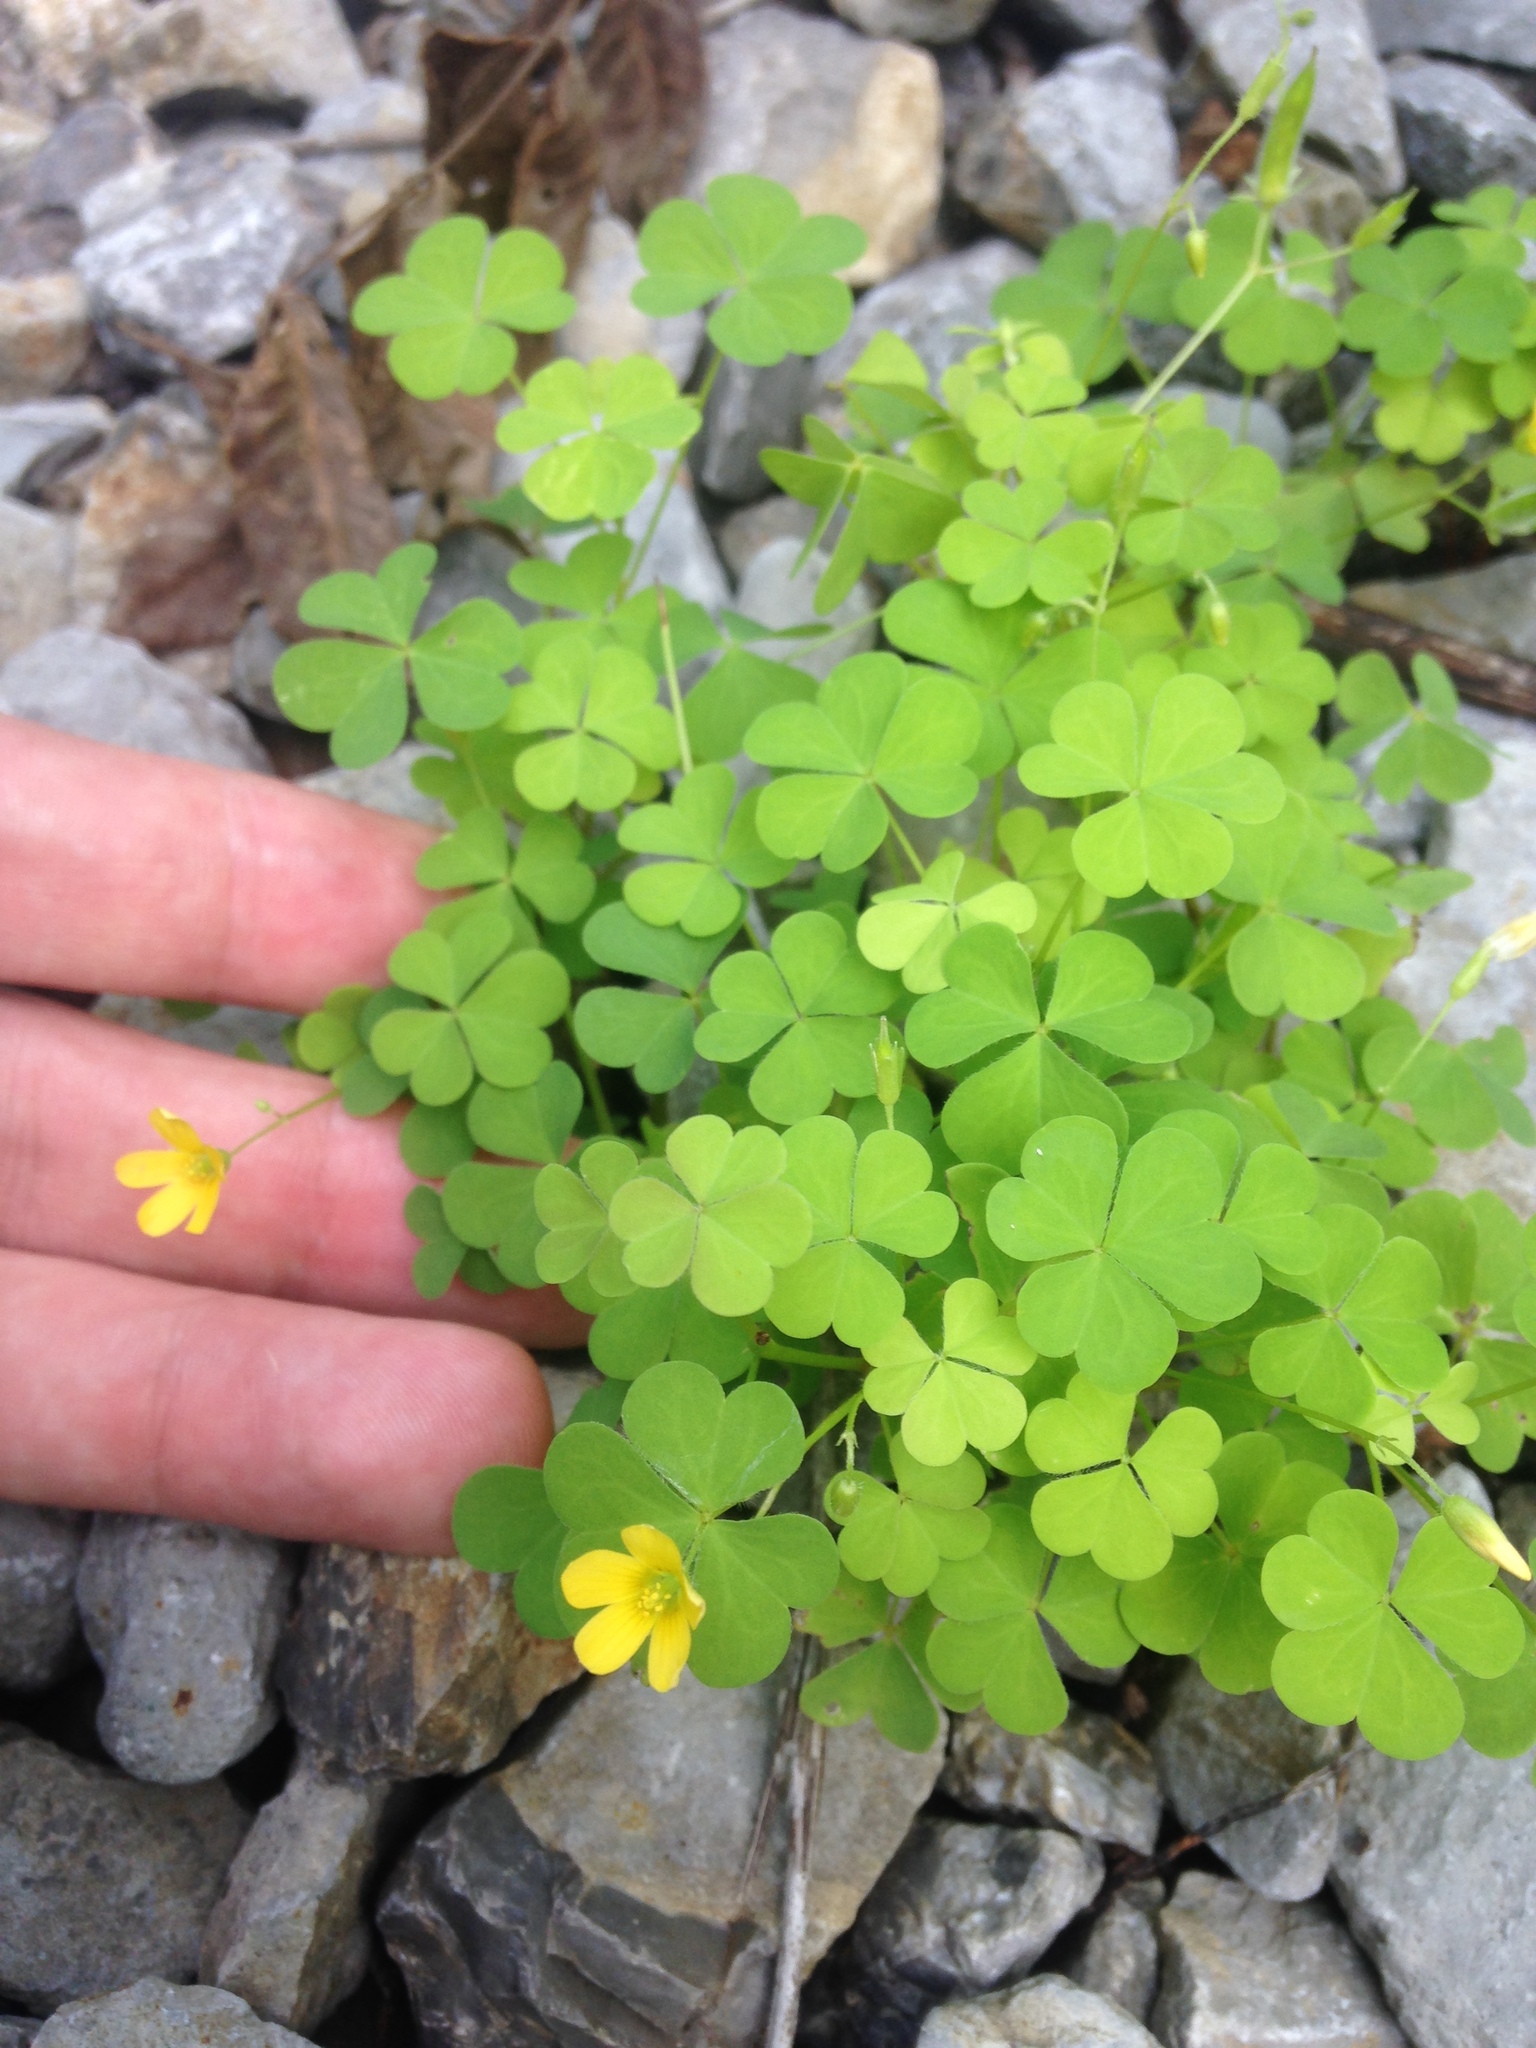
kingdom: Plantae
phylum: Tracheophyta
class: Magnoliopsida
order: Oxalidales
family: Oxalidaceae
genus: Oxalis
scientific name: Oxalis stricta
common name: Upright yellow-sorrel
